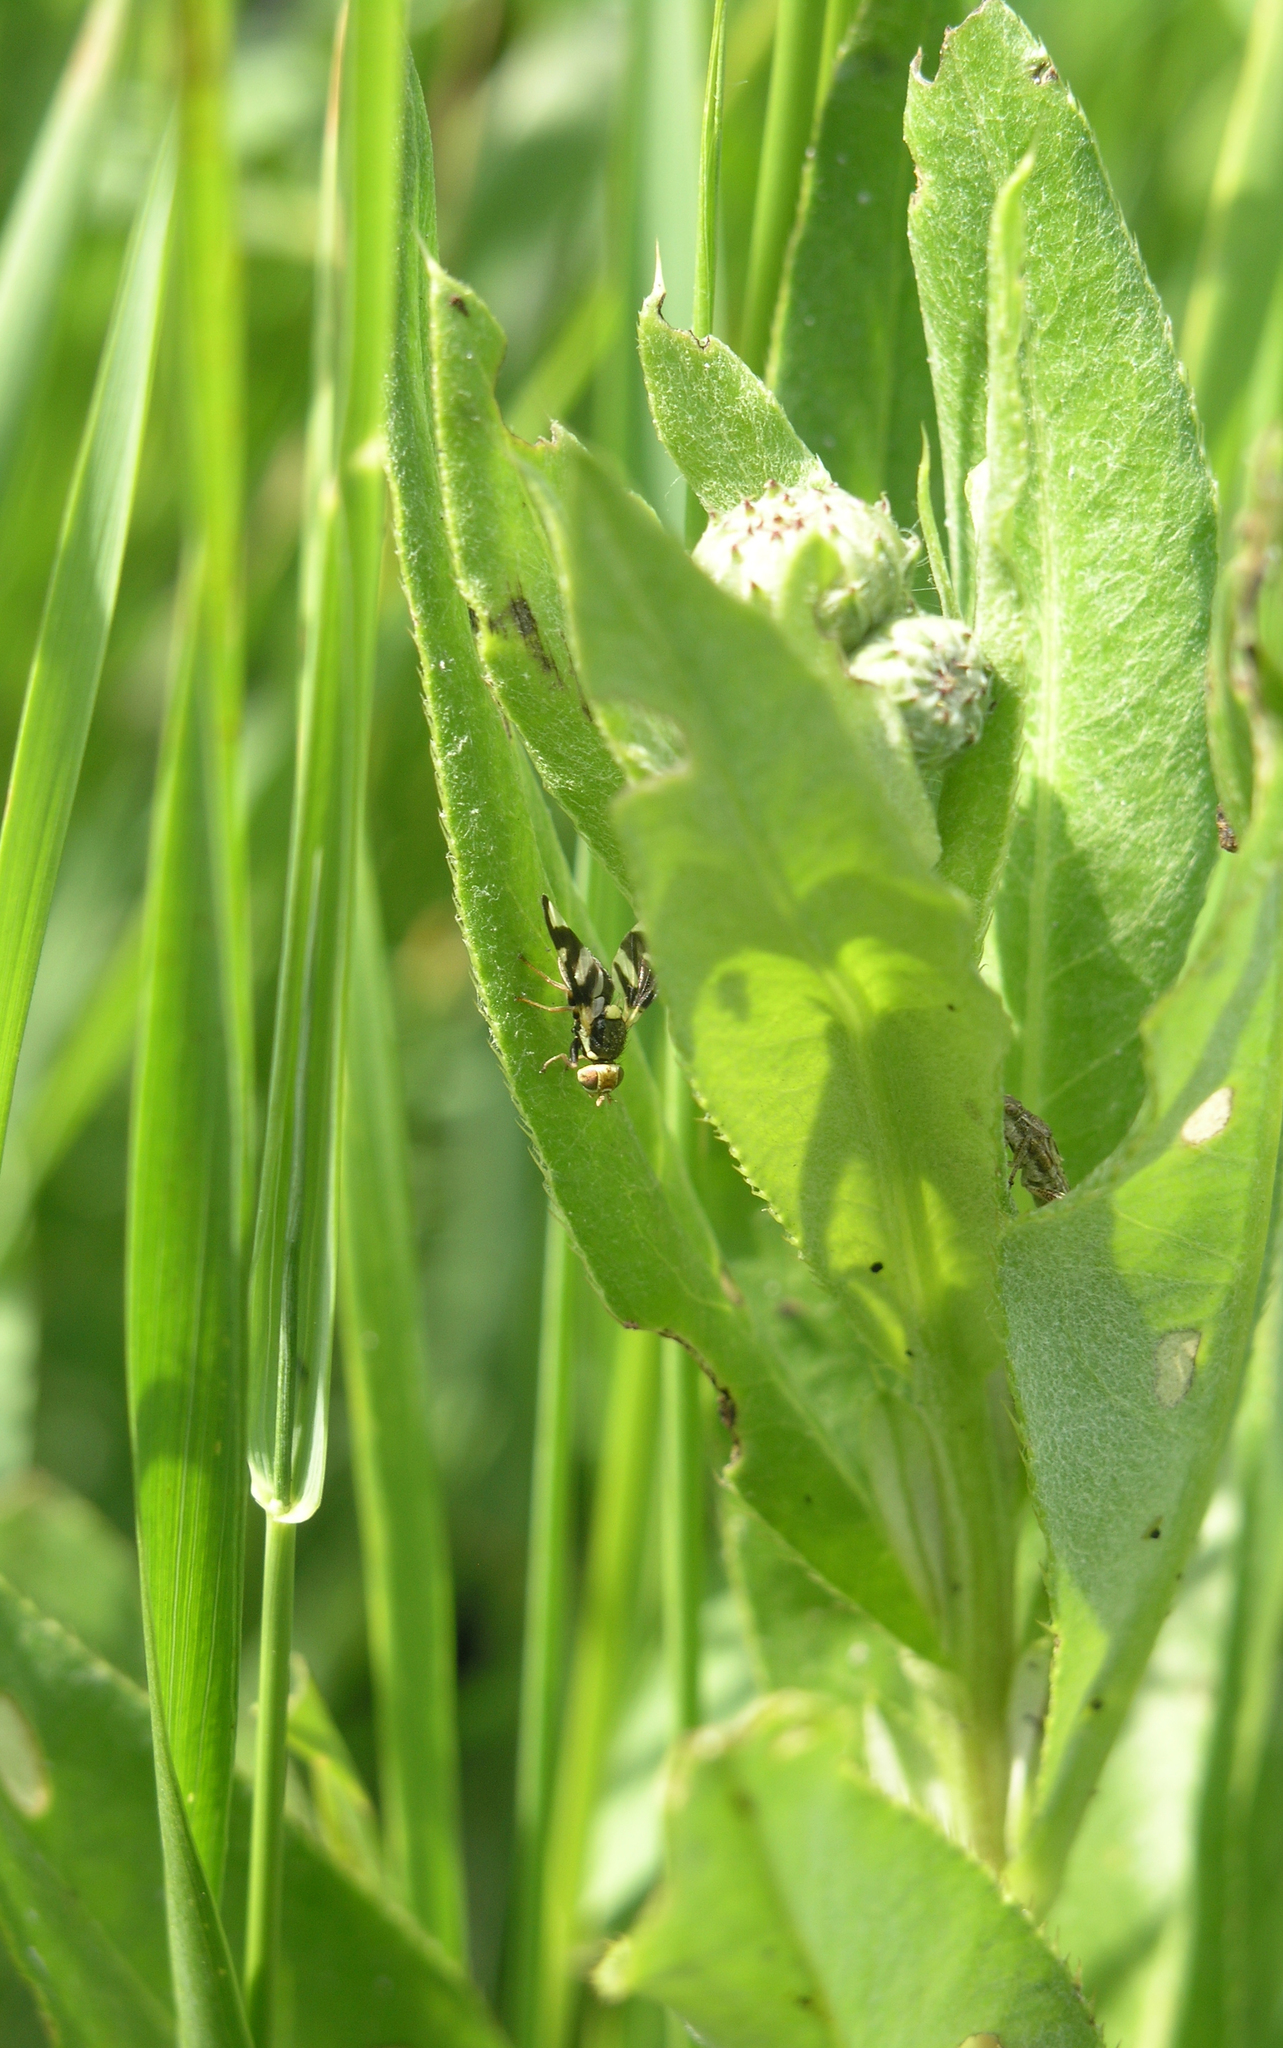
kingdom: Plantae
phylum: Tracheophyta
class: Magnoliopsida
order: Asterales
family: Asteraceae
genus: Cirsium
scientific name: Cirsium arvense
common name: Creeping thistle
